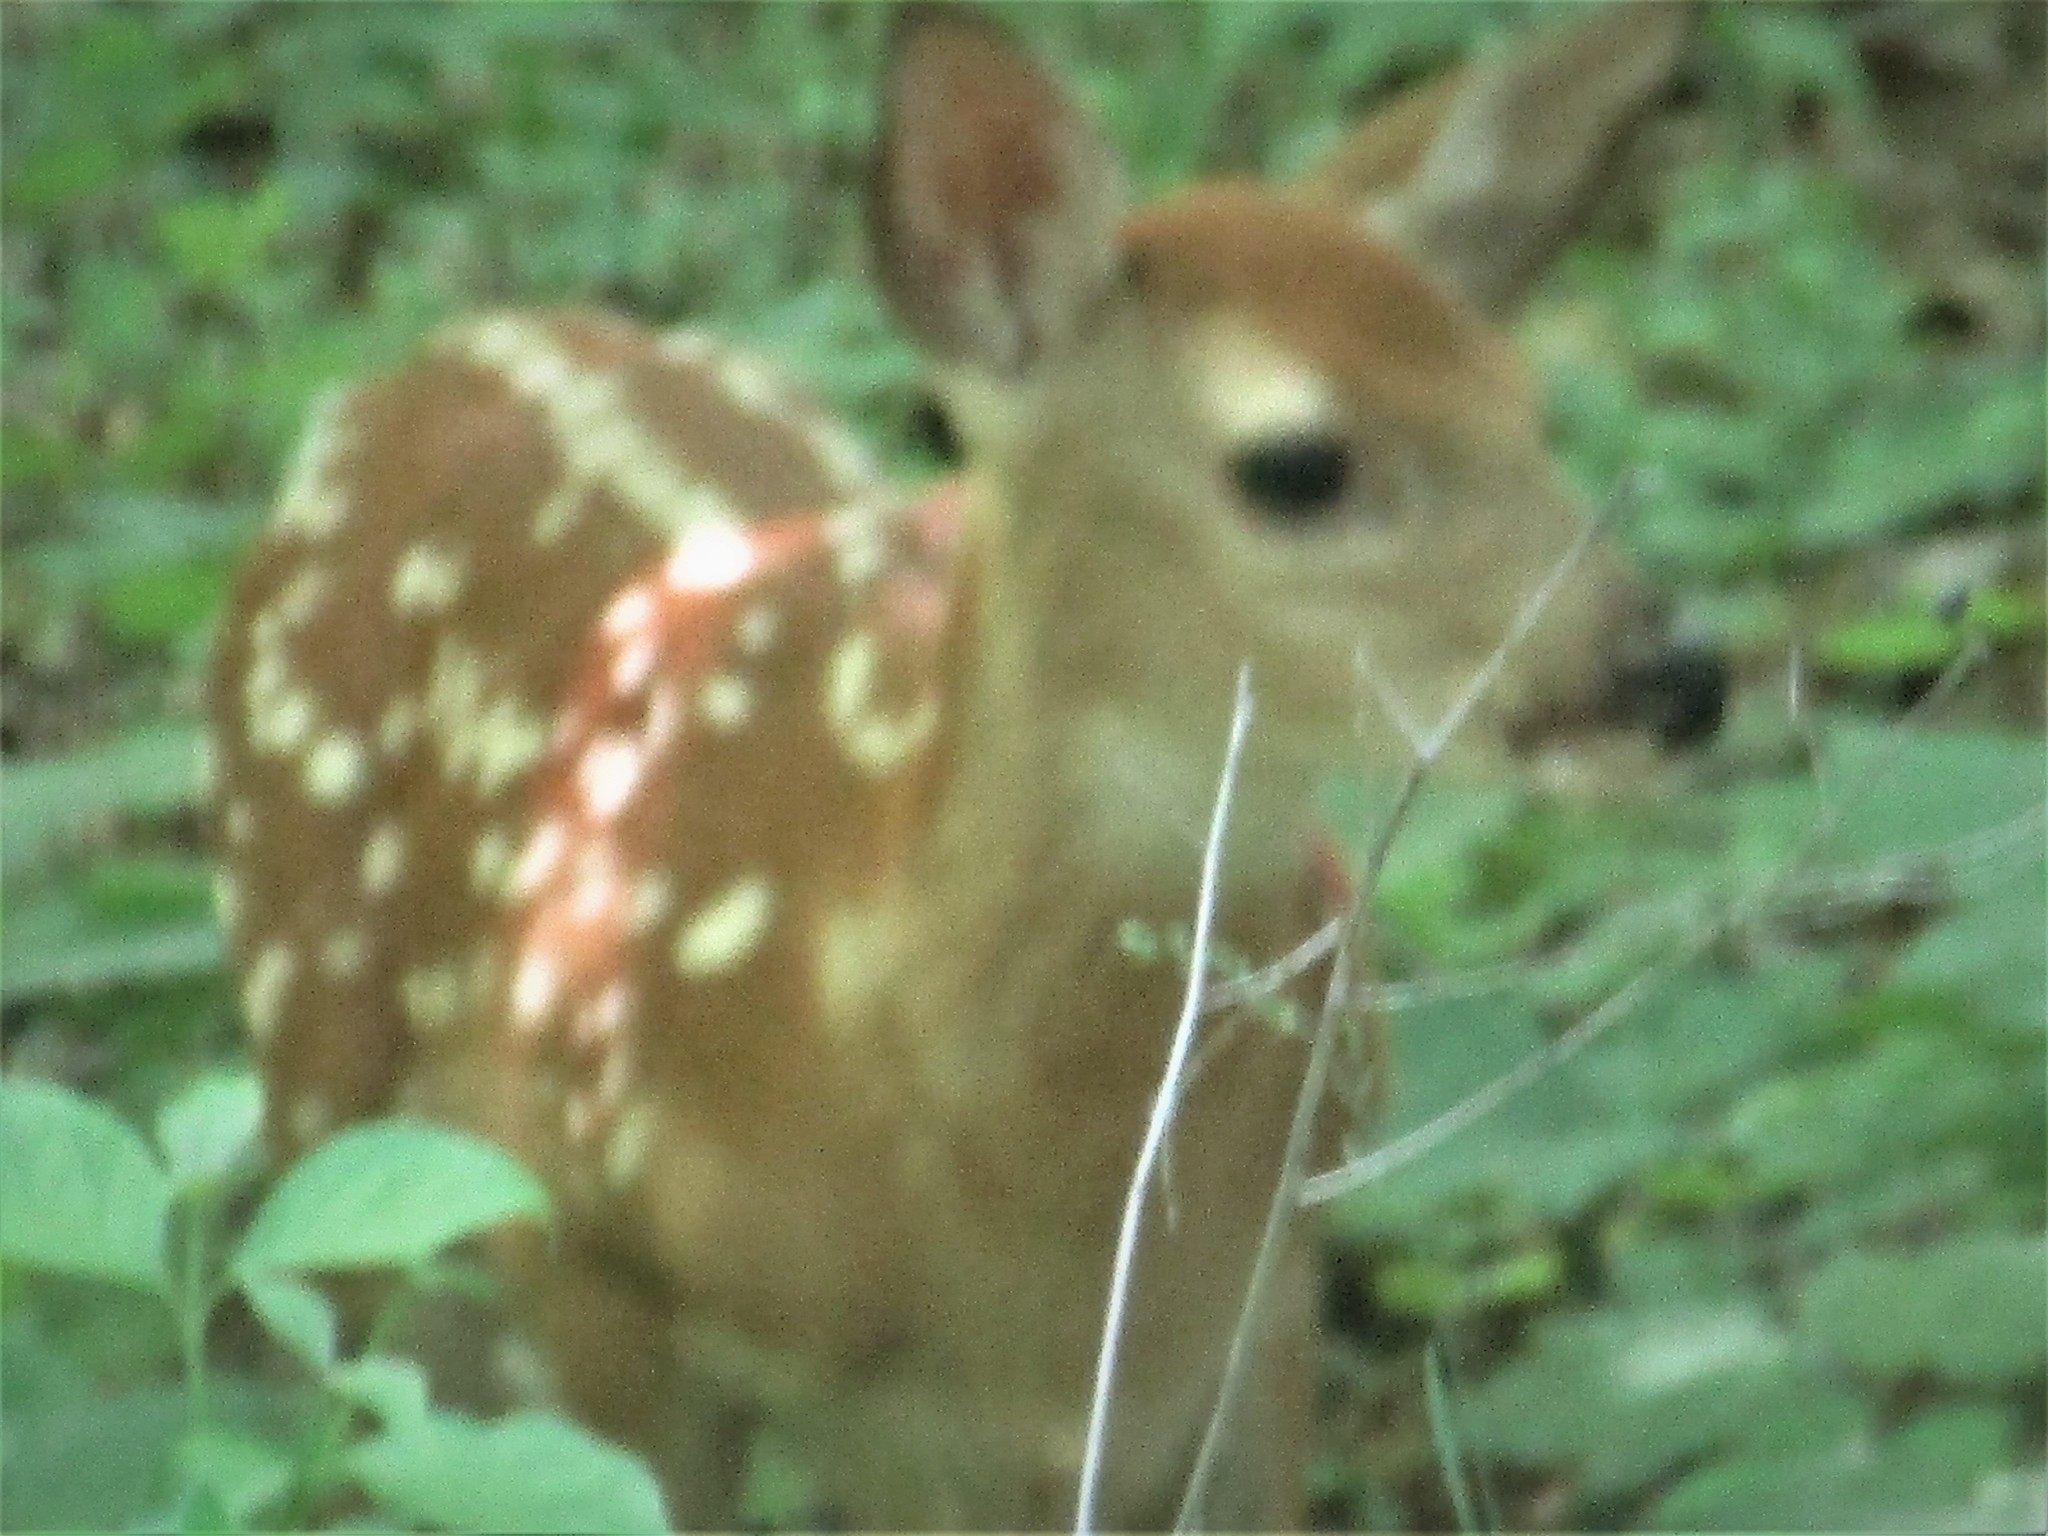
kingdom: Animalia
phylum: Chordata
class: Mammalia
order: Artiodactyla
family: Cervidae
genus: Odocoileus
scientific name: Odocoileus virginianus
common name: White-tailed deer
